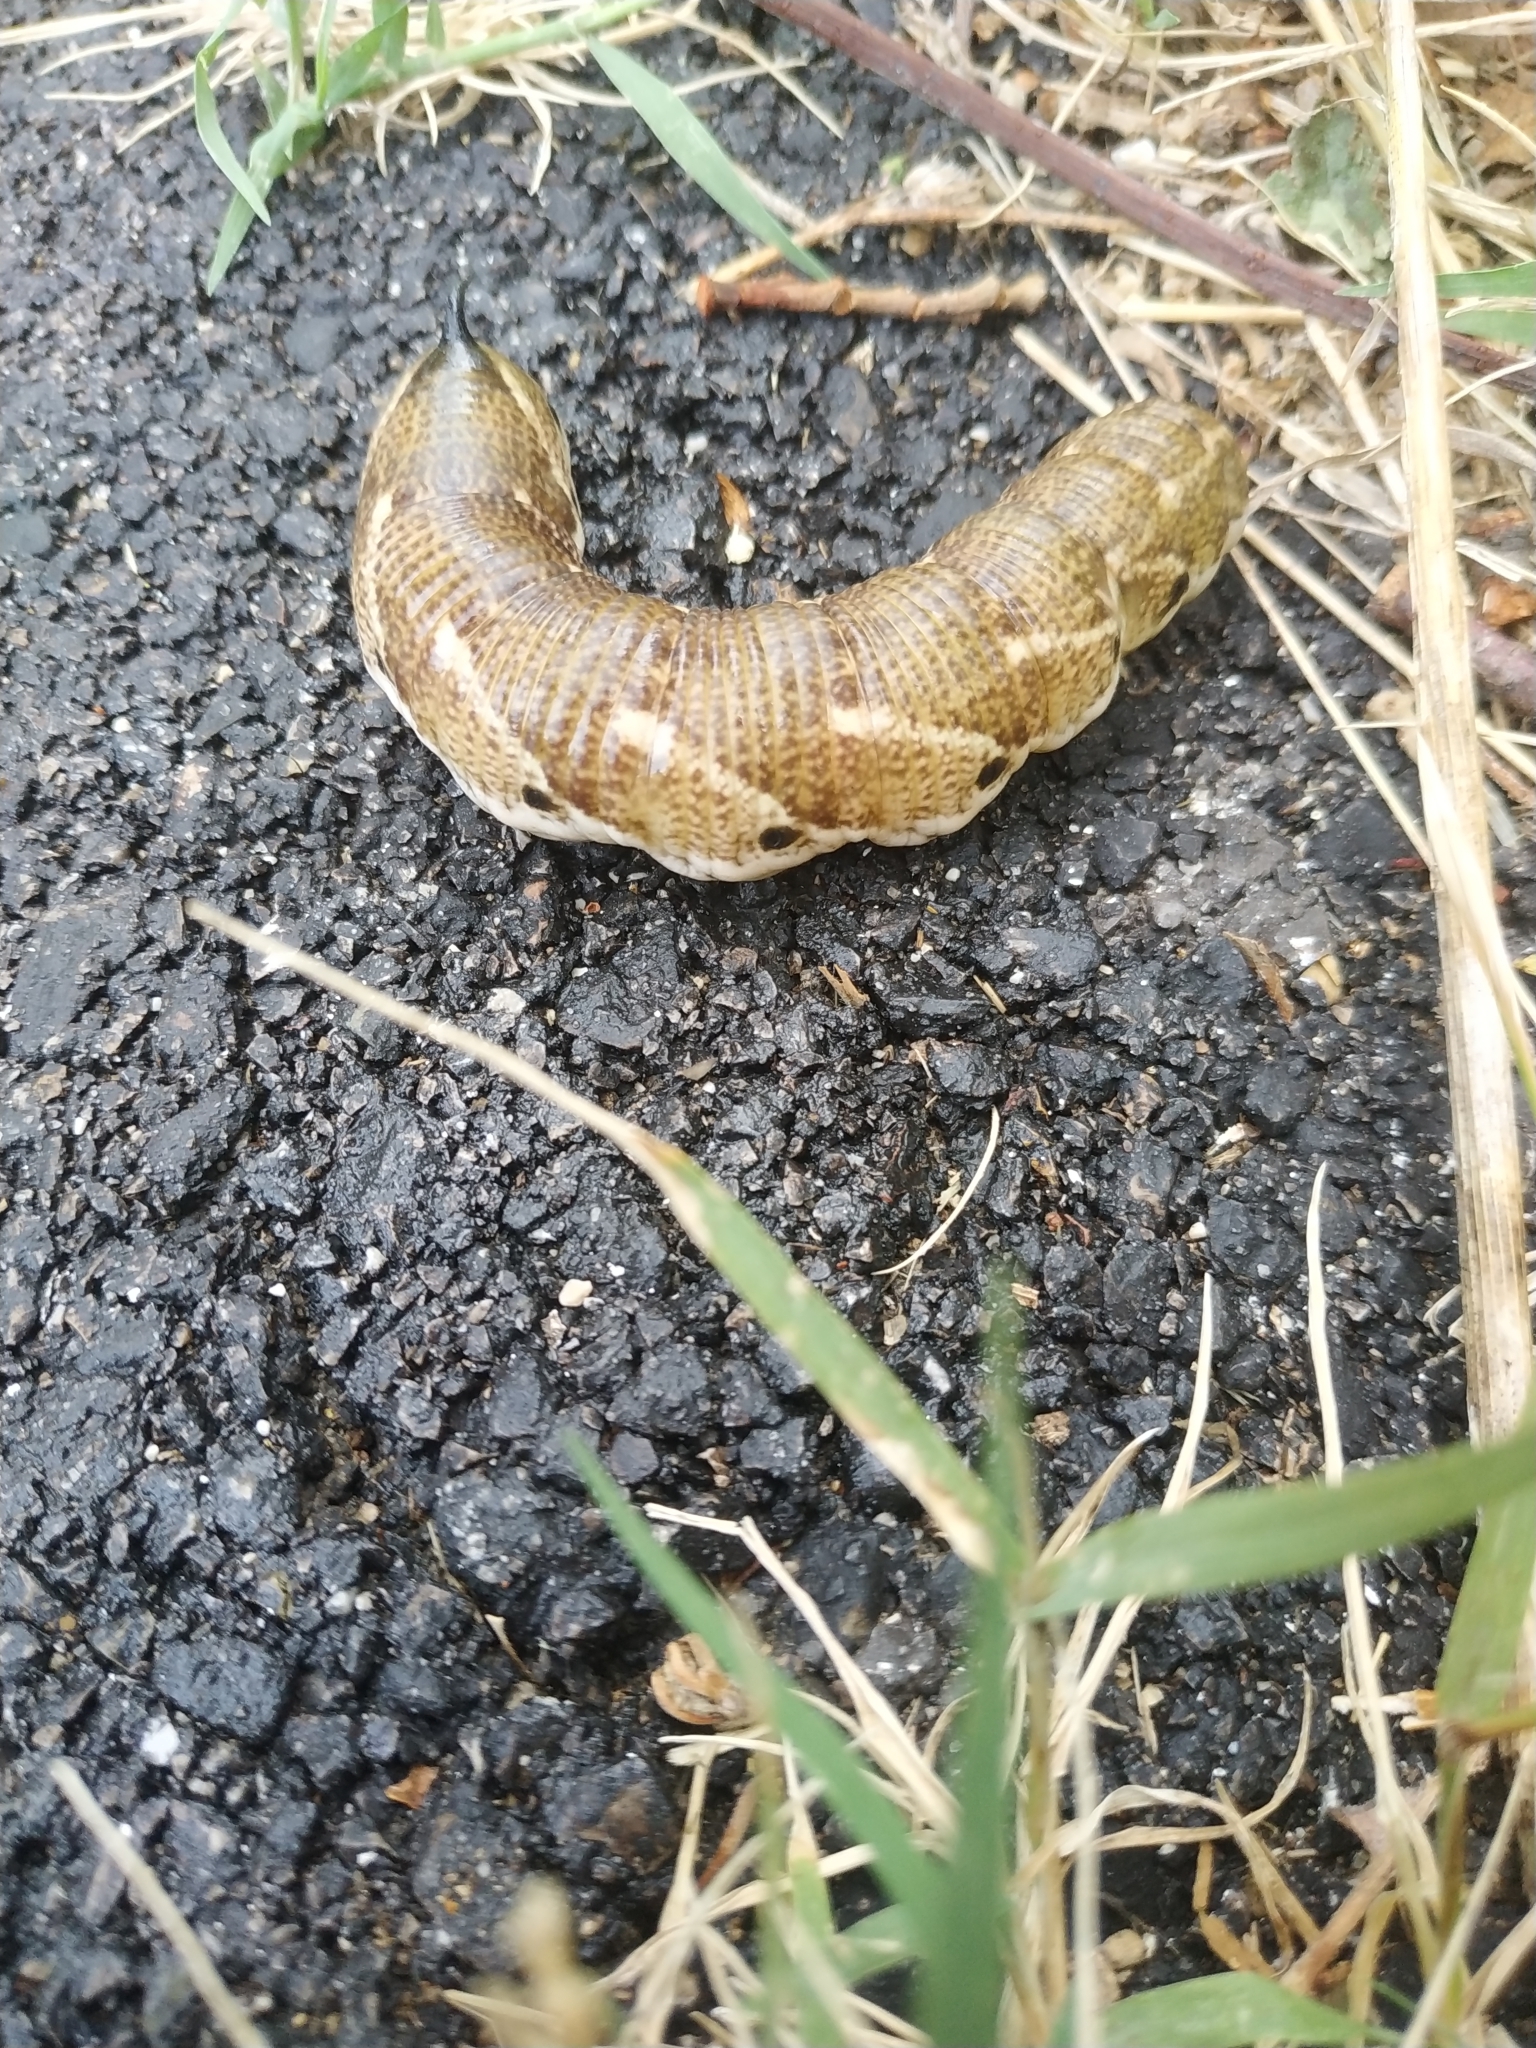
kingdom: Animalia
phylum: Arthropoda
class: Insecta
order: Lepidoptera
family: Sphingidae
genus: Agrius
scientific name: Agrius convolvuli
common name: Convolvulus hawkmoth
